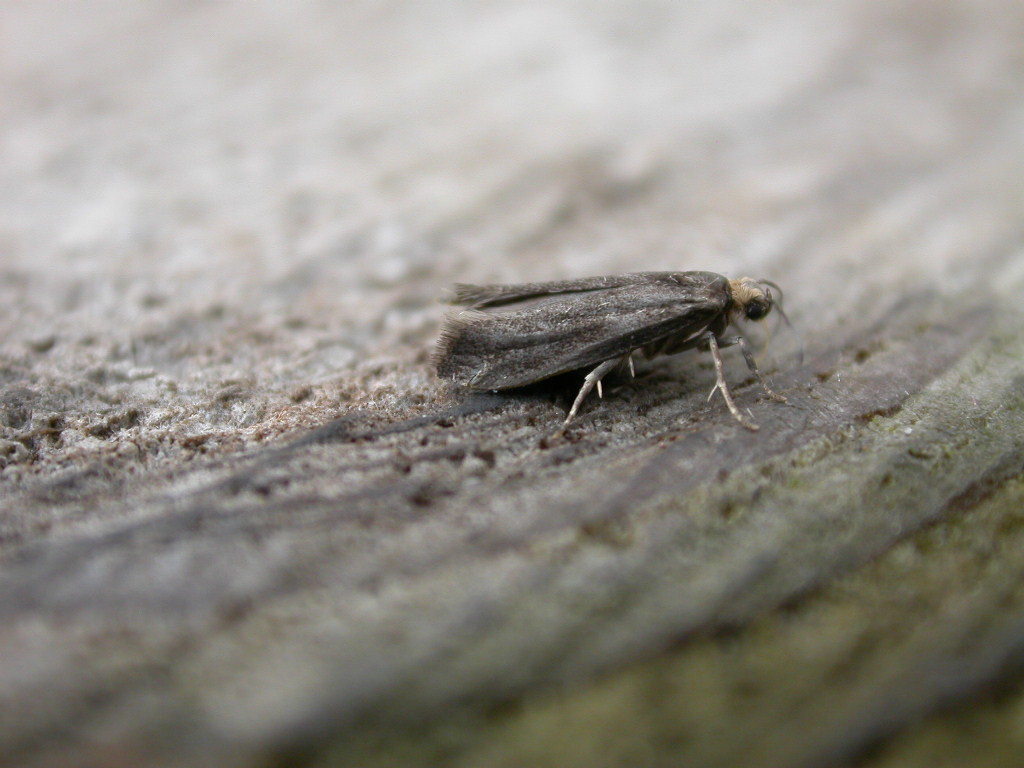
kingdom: Animalia
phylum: Arthropoda
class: Insecta
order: Lepidoptera
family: Praydidae
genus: Prays
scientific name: Prays curtisella
